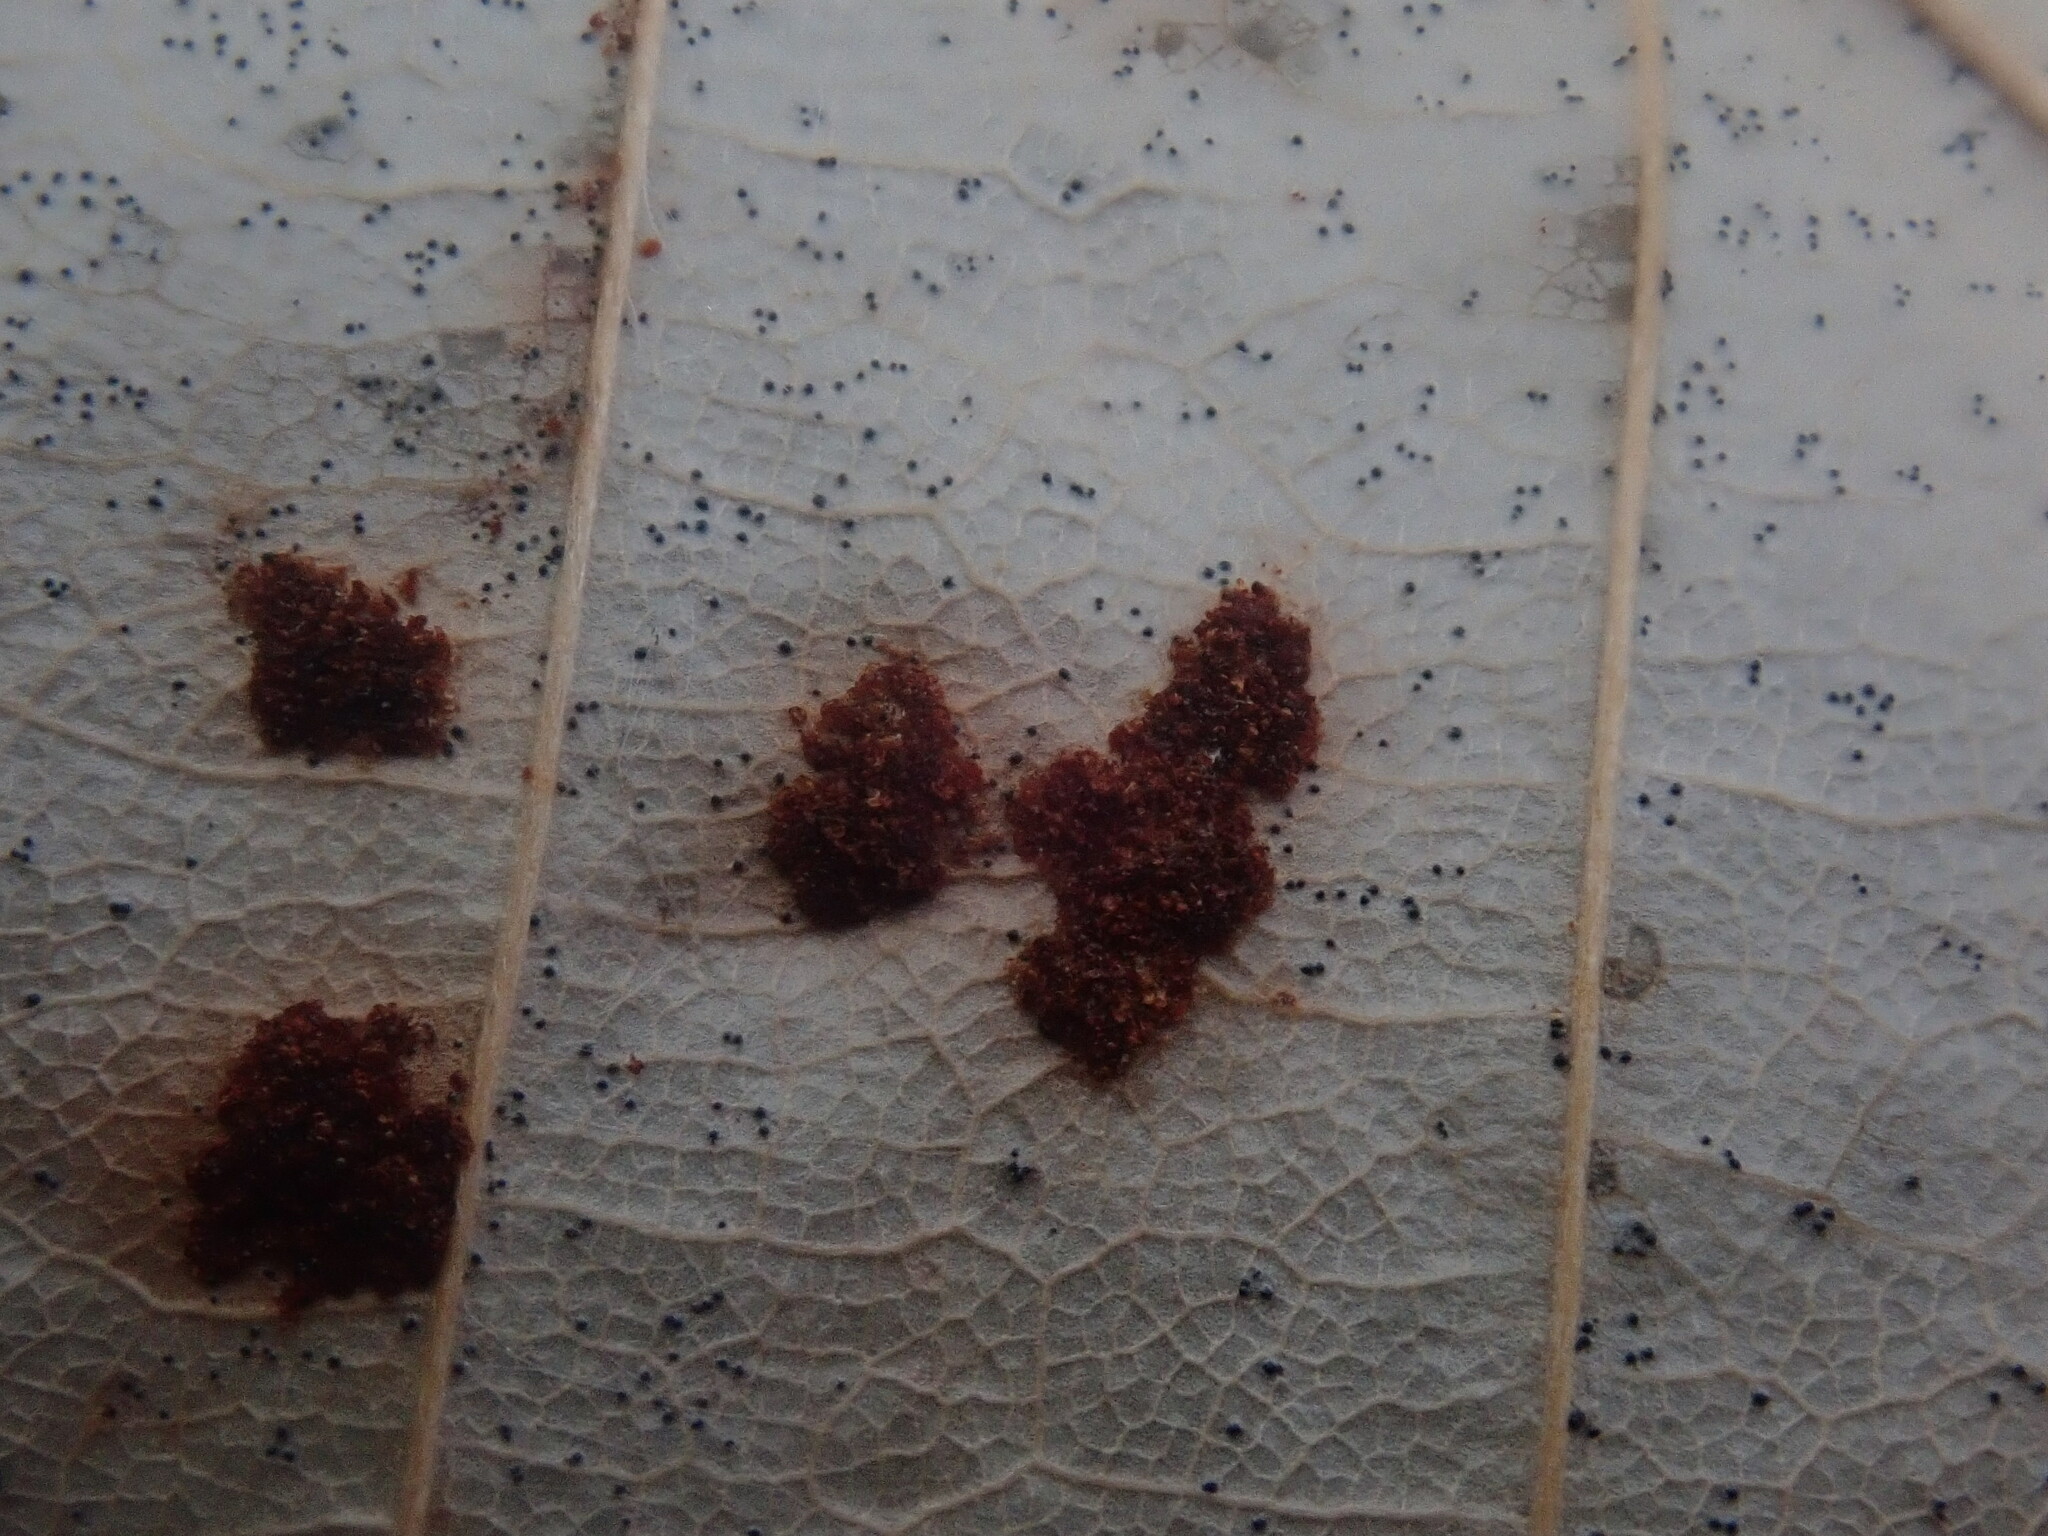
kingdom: Animalia
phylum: Arthropoda
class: Arachnida
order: Trombidiformes
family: Eriophyidae
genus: Acalitus
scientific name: Acalitus
